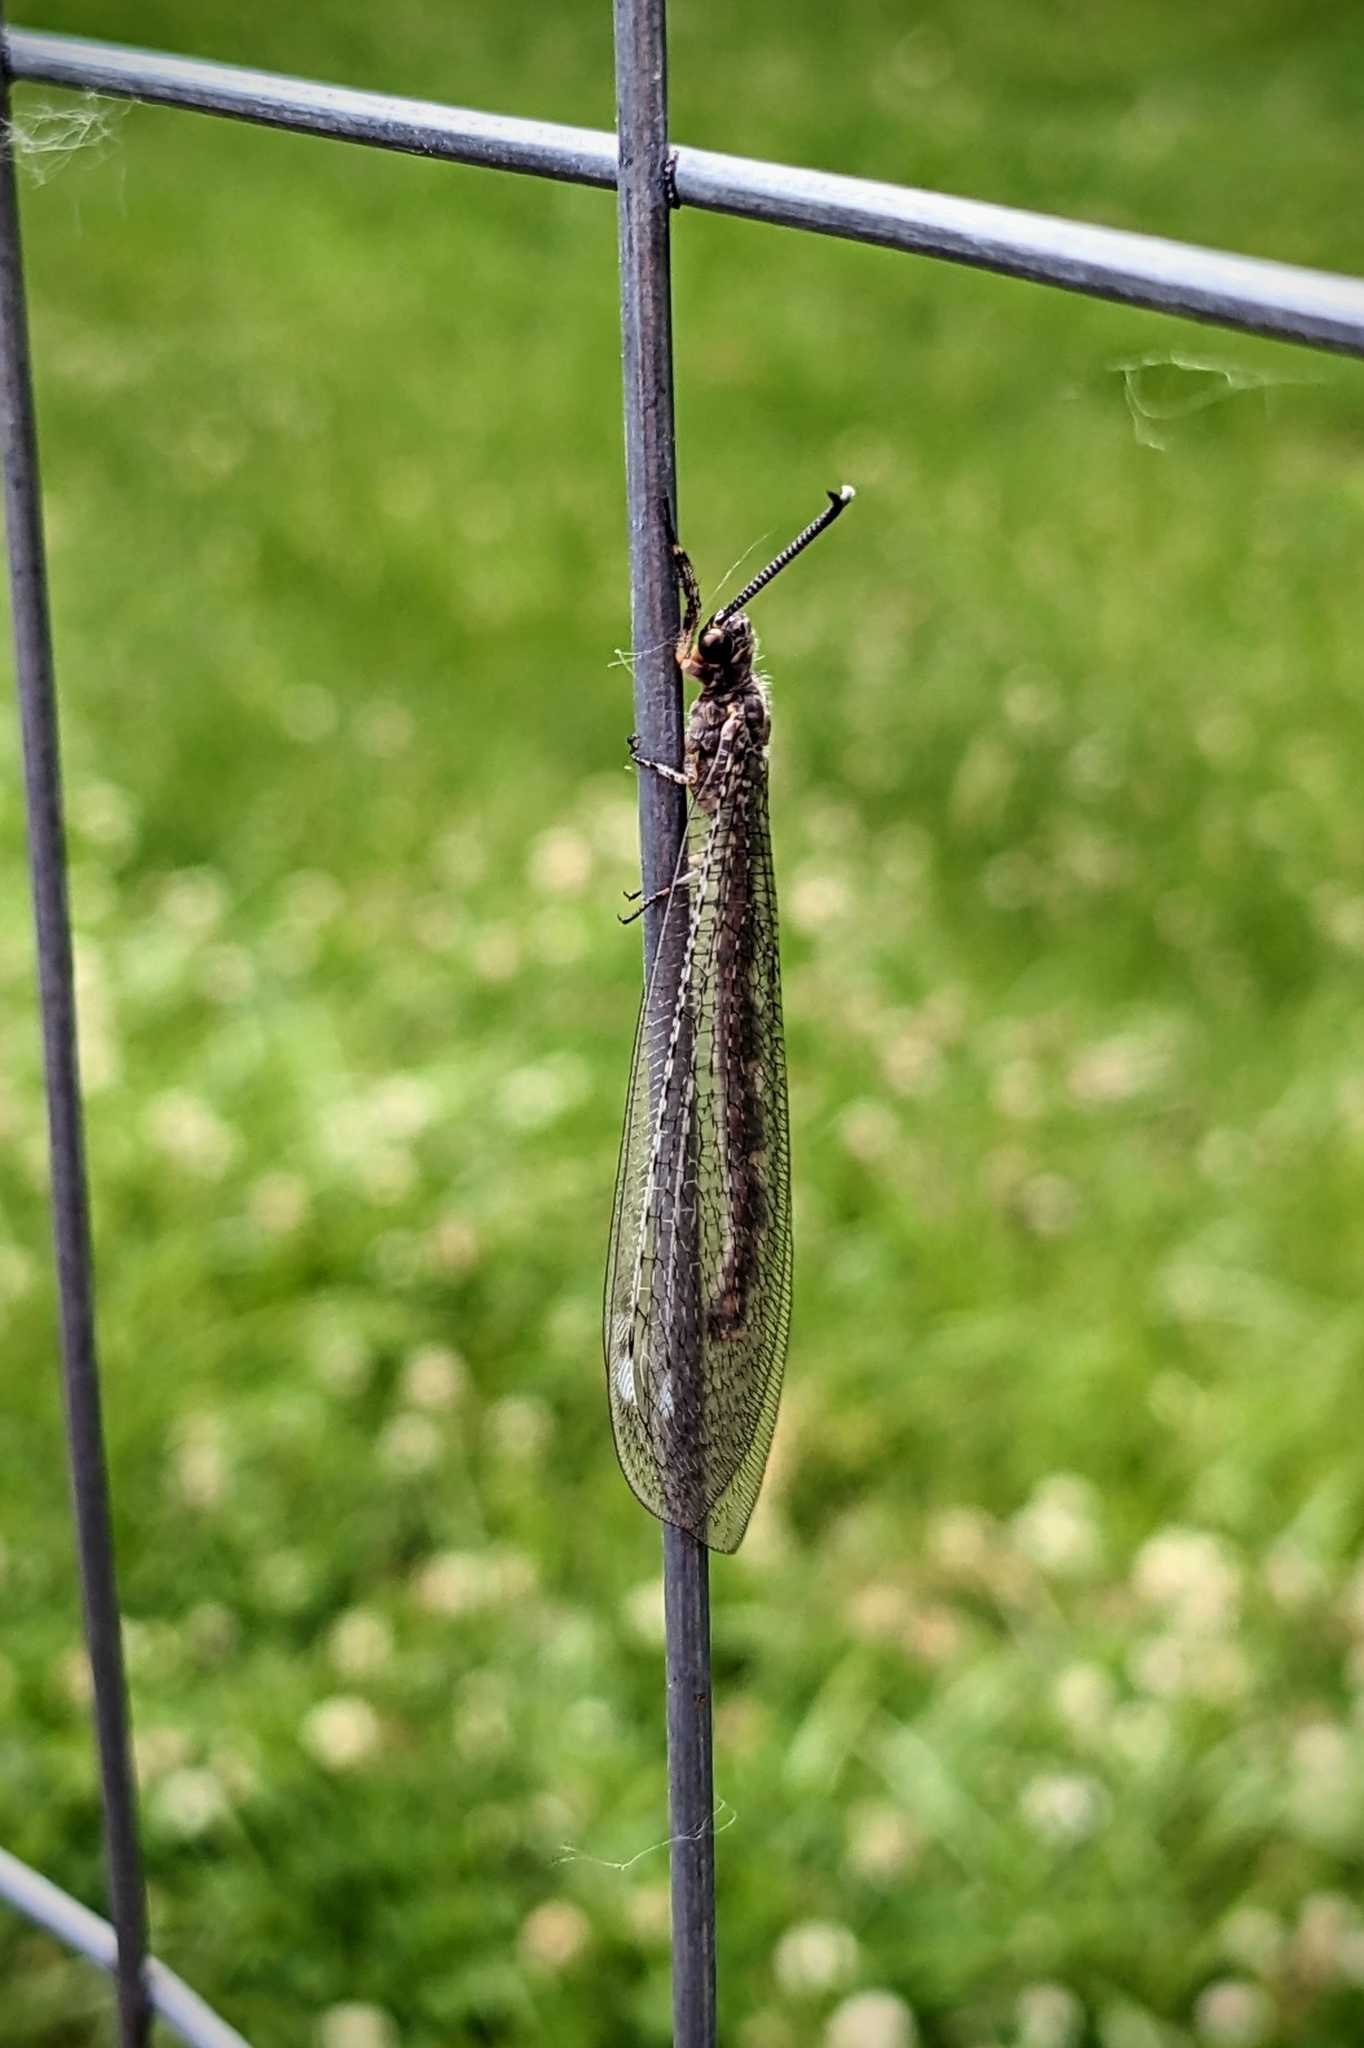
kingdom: Animalia
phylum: Arthropoda
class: Insecta
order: Neuroptera
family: Myrmeleontidae
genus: Myrmeleon
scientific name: Myrmeleon immaculatus
